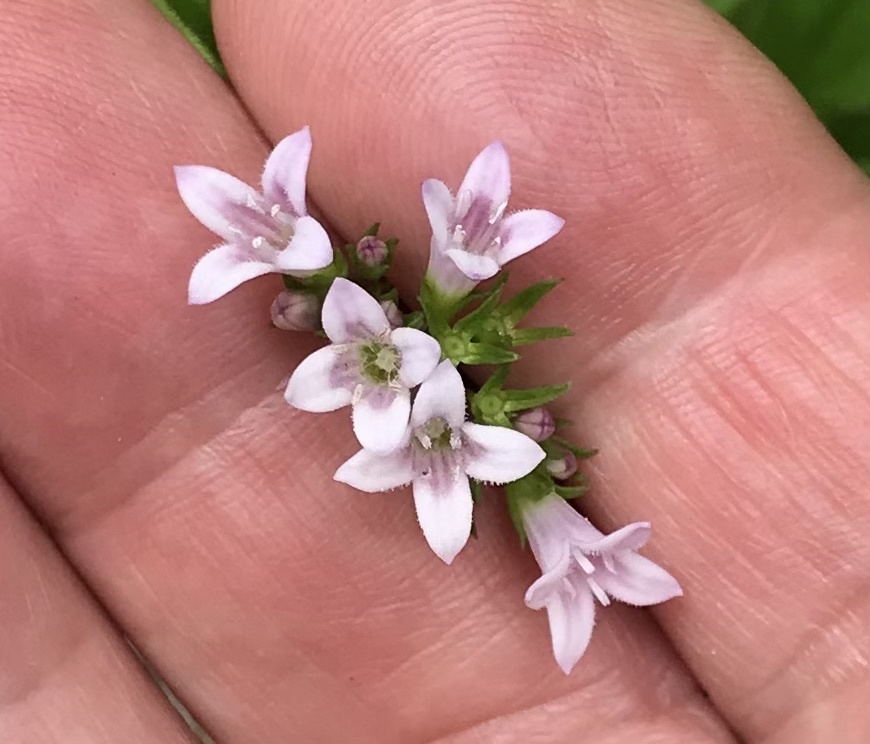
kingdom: Plantae
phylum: Tracheophyta
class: Magnoliopsida
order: Gentianales
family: Rubiaceae
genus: Houstonia
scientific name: Houstonia purpurea
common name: Summer bluet
